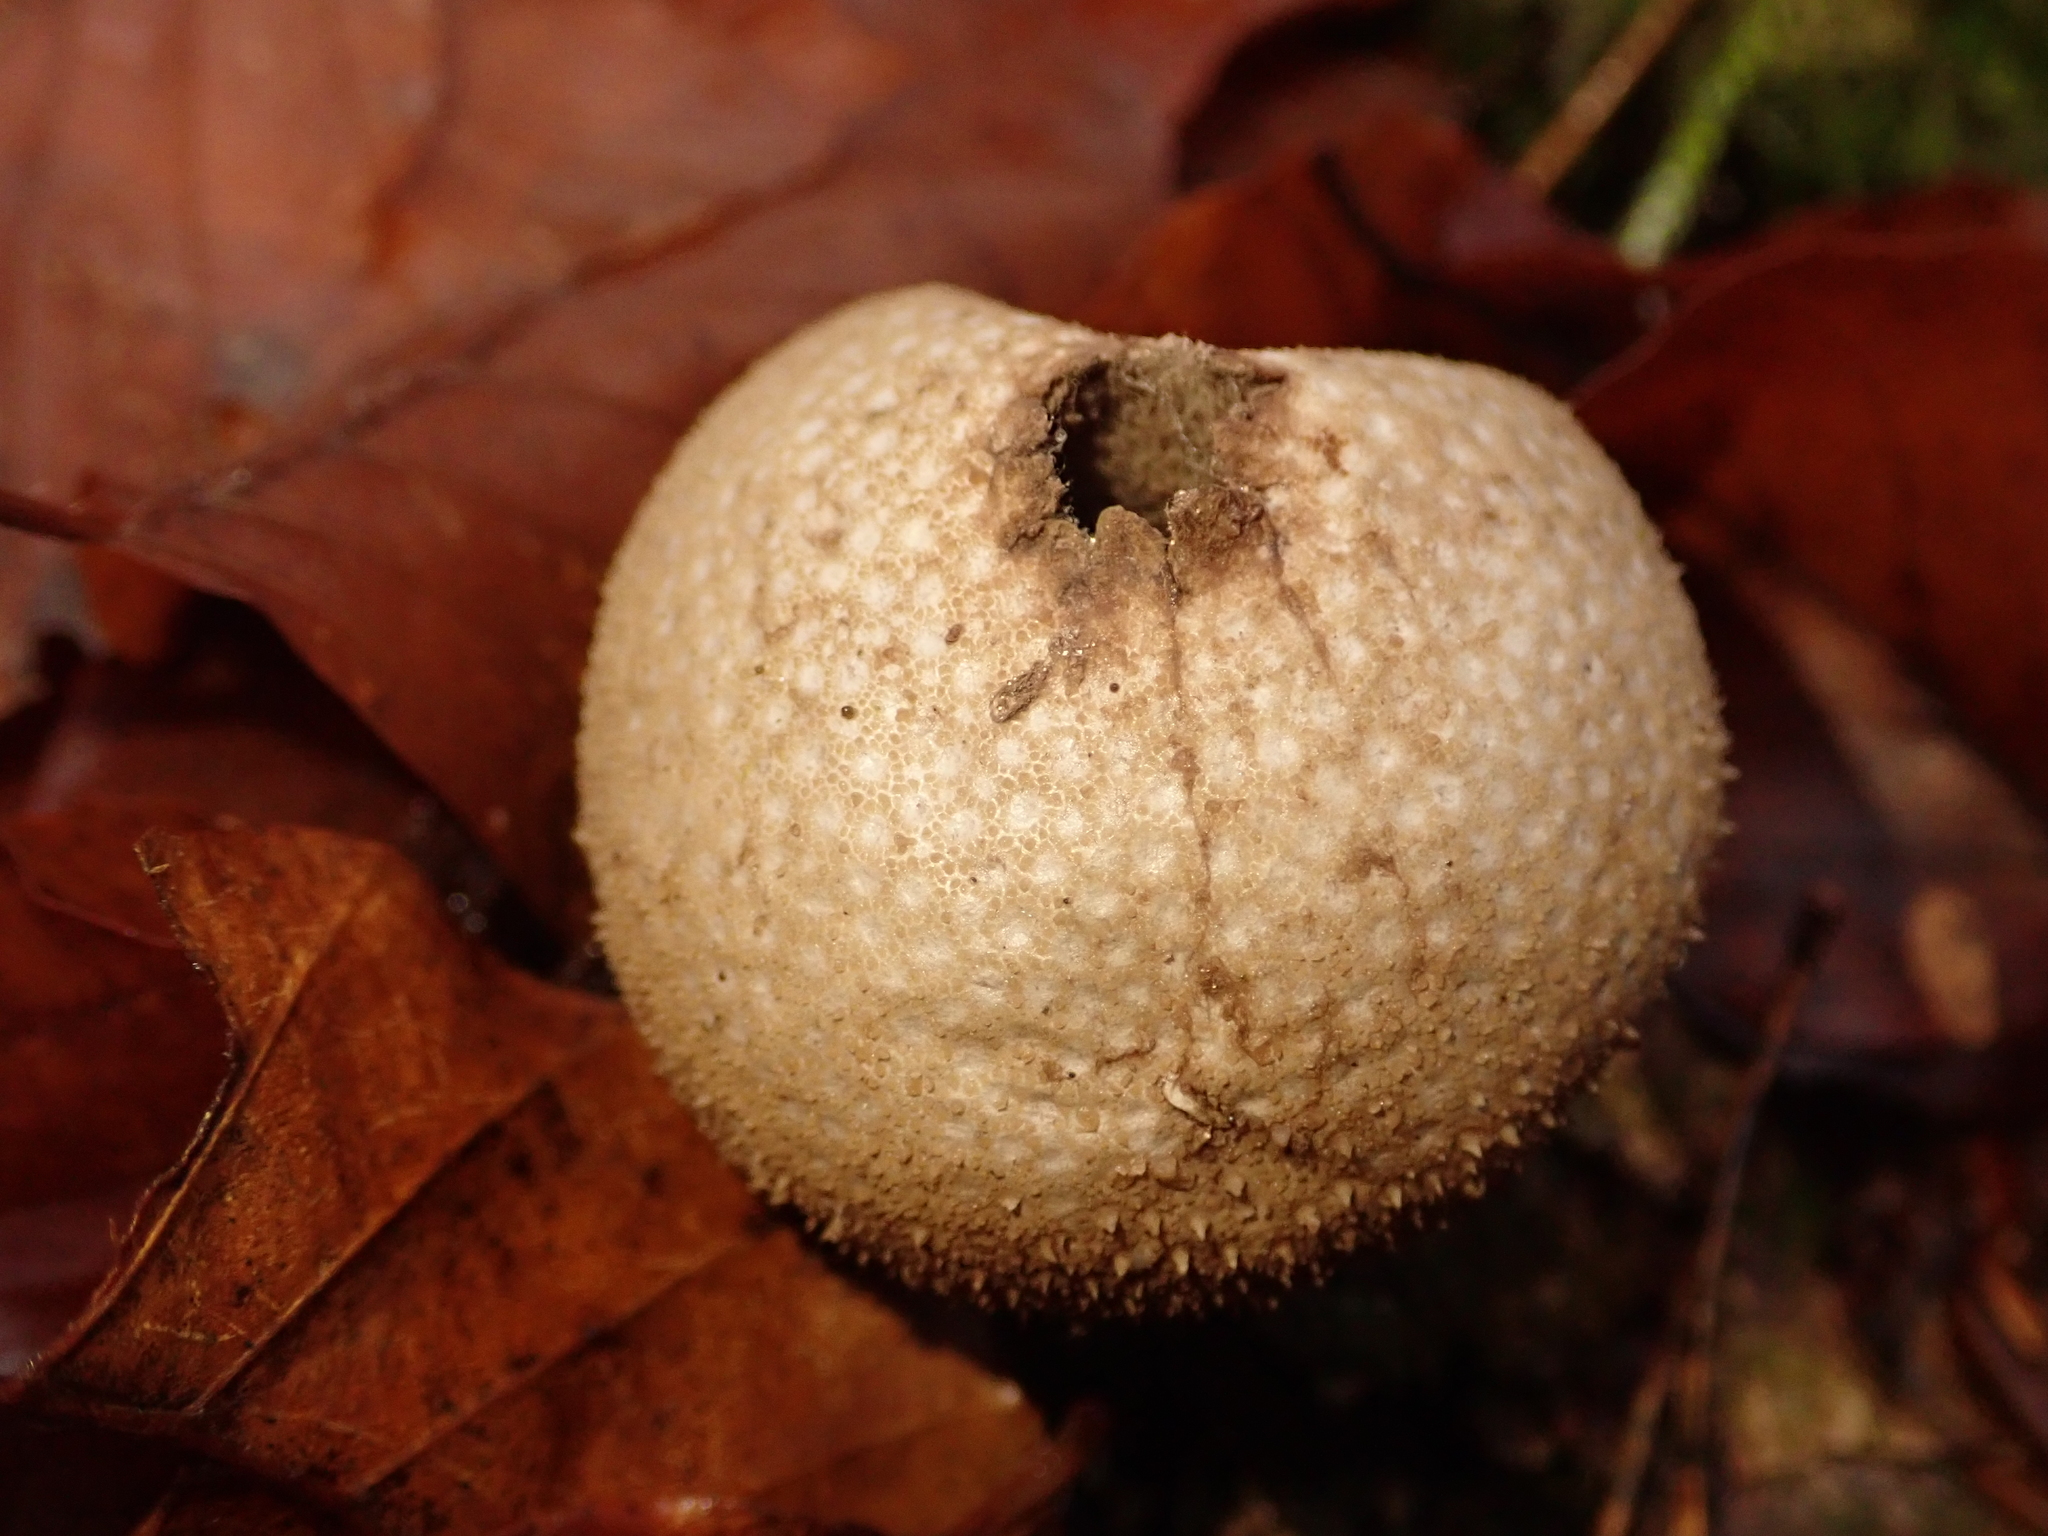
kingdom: Fungi
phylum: Basidiomycota
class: Agaricomycetes
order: Agaricales
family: Lycoperdaceae
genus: Lycoperdon
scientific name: Lycoperdon perlatum
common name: Common puffball
